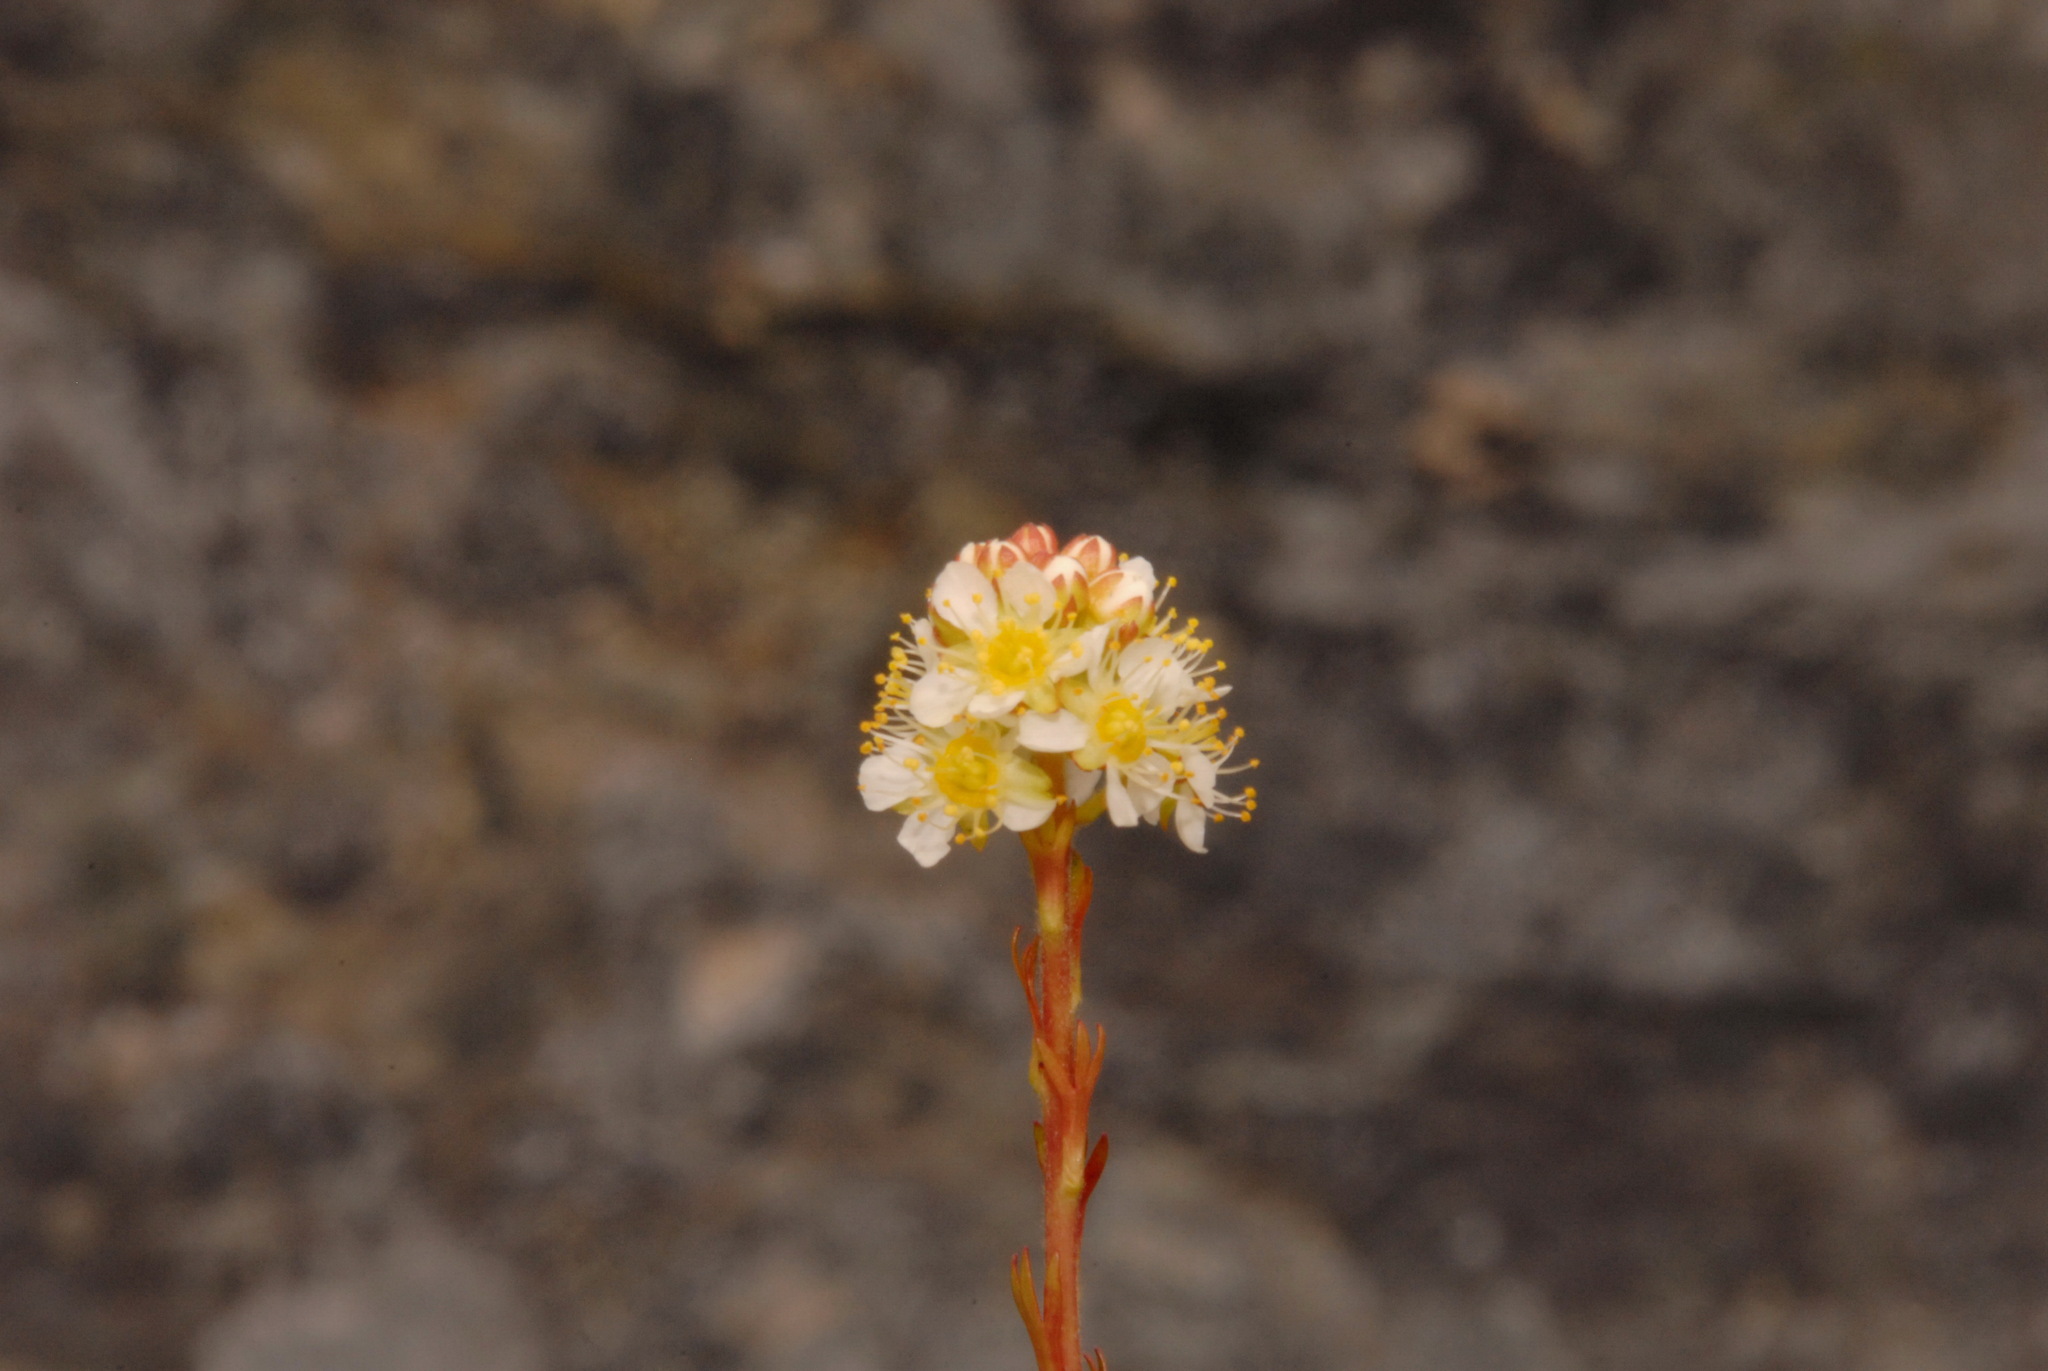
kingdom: Plantae
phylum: Tracheophyta
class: Magnoliopsida
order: Rosales
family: Rosaceae
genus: Luetkea
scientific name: Luetkea pectinata
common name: Partridgefoot
